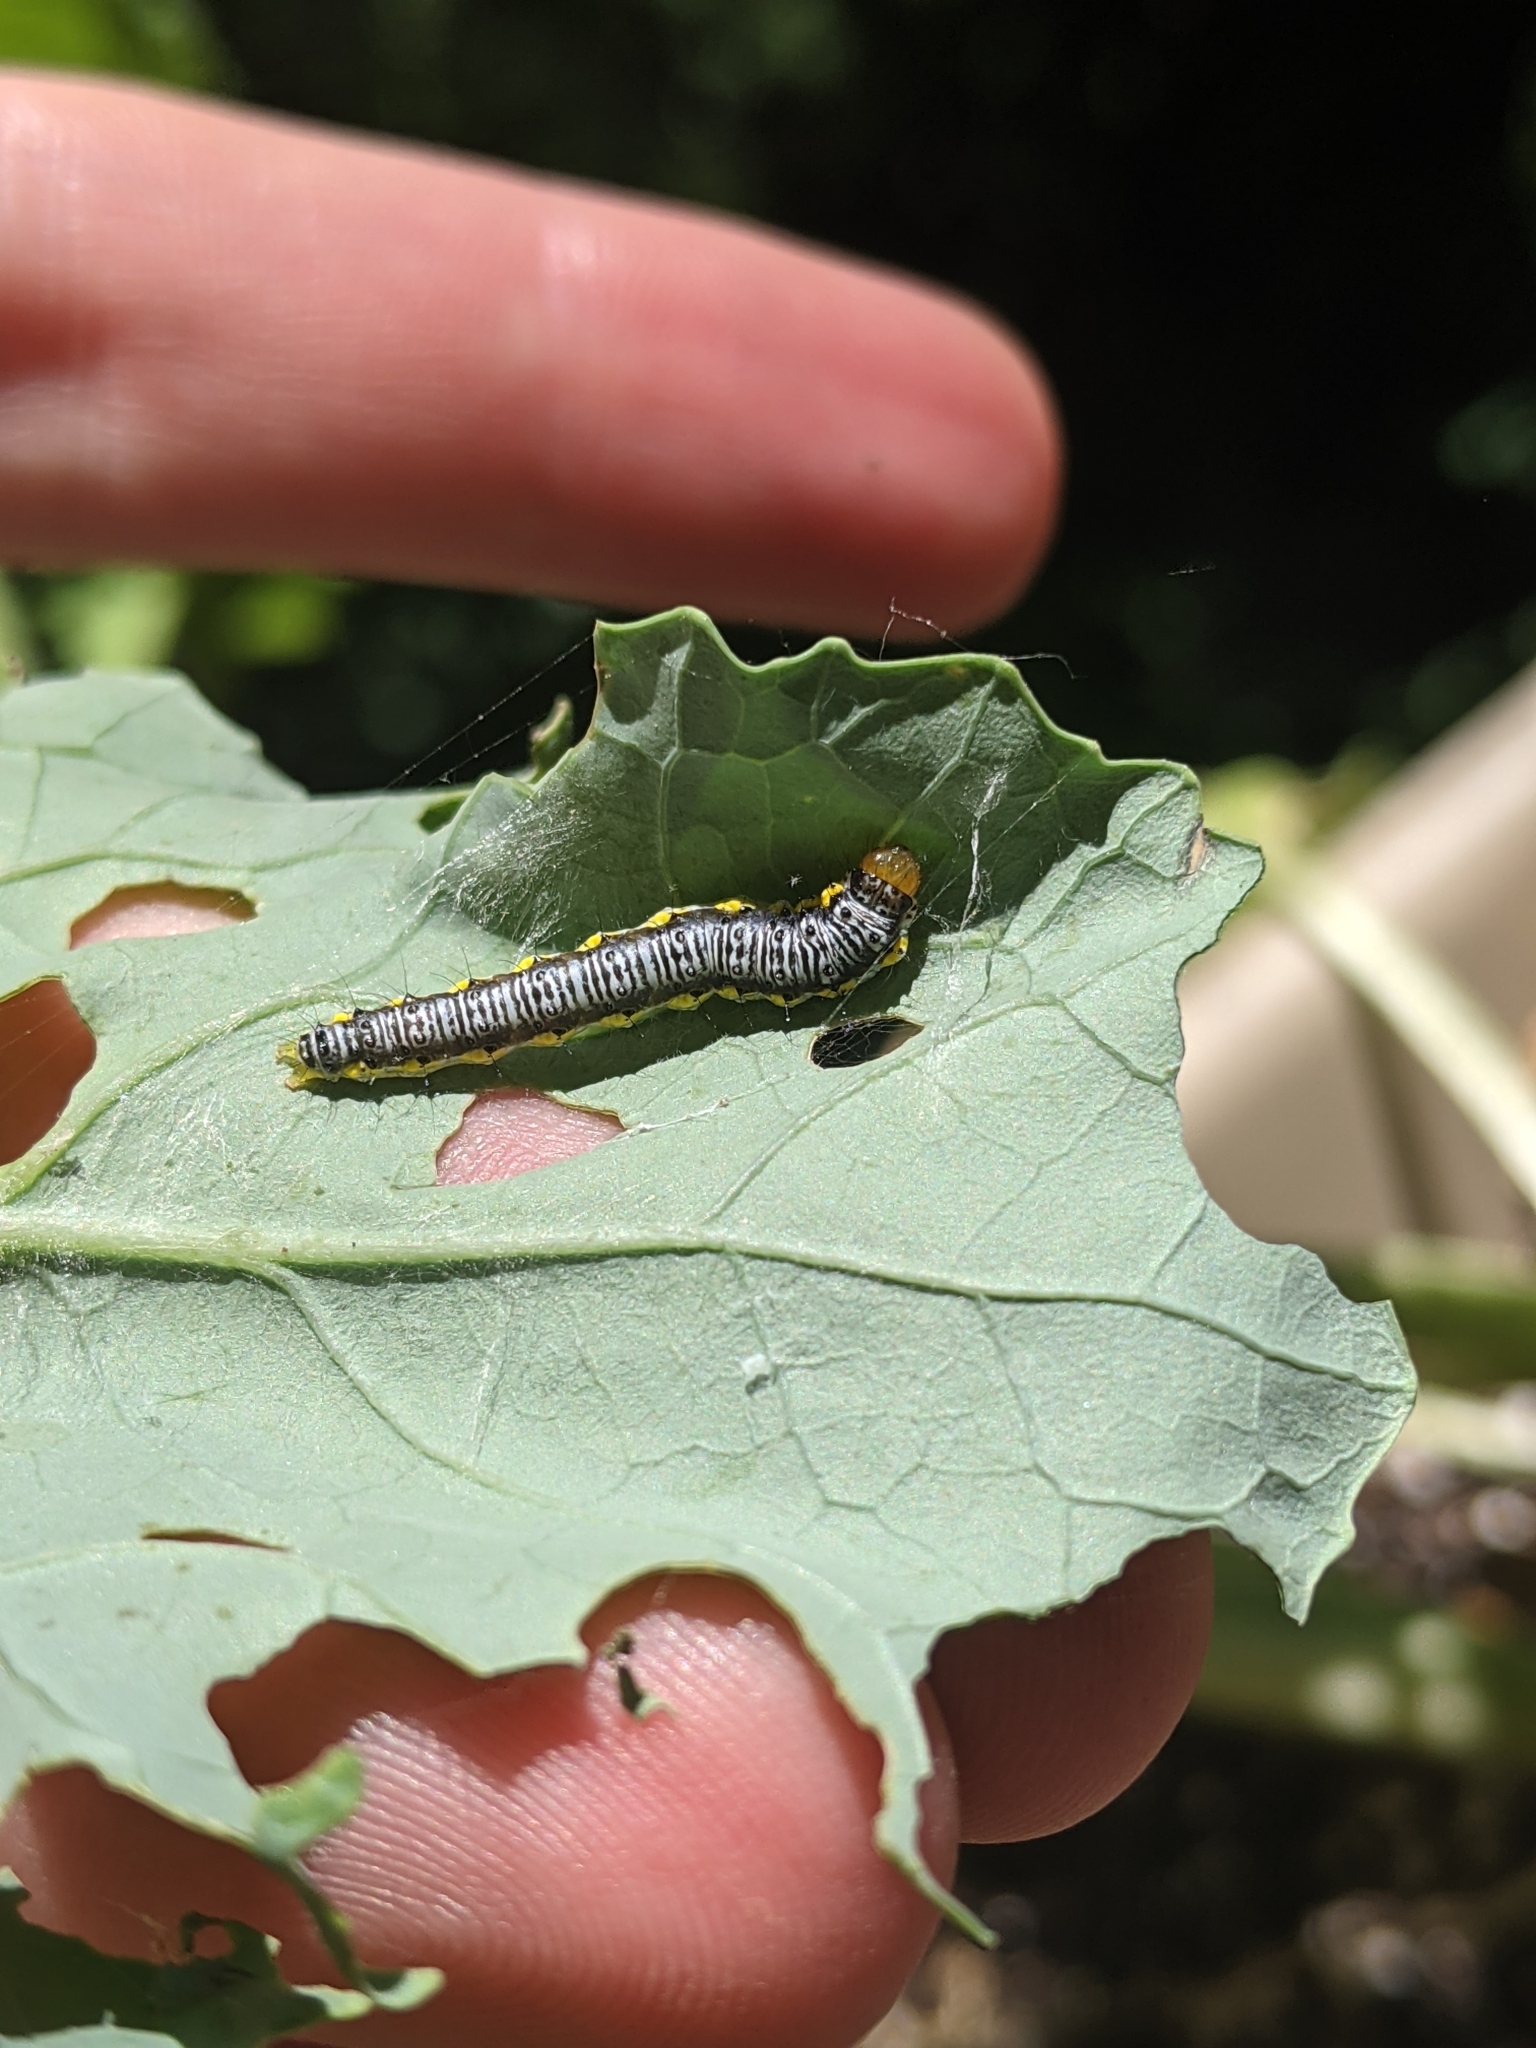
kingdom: Animalia
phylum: Arthropoda
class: Insecta
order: Lepidoptera
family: Crambidae
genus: Evergestis
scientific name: Evergestis rimosalis
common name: Cross-striped cabbageworm moth
